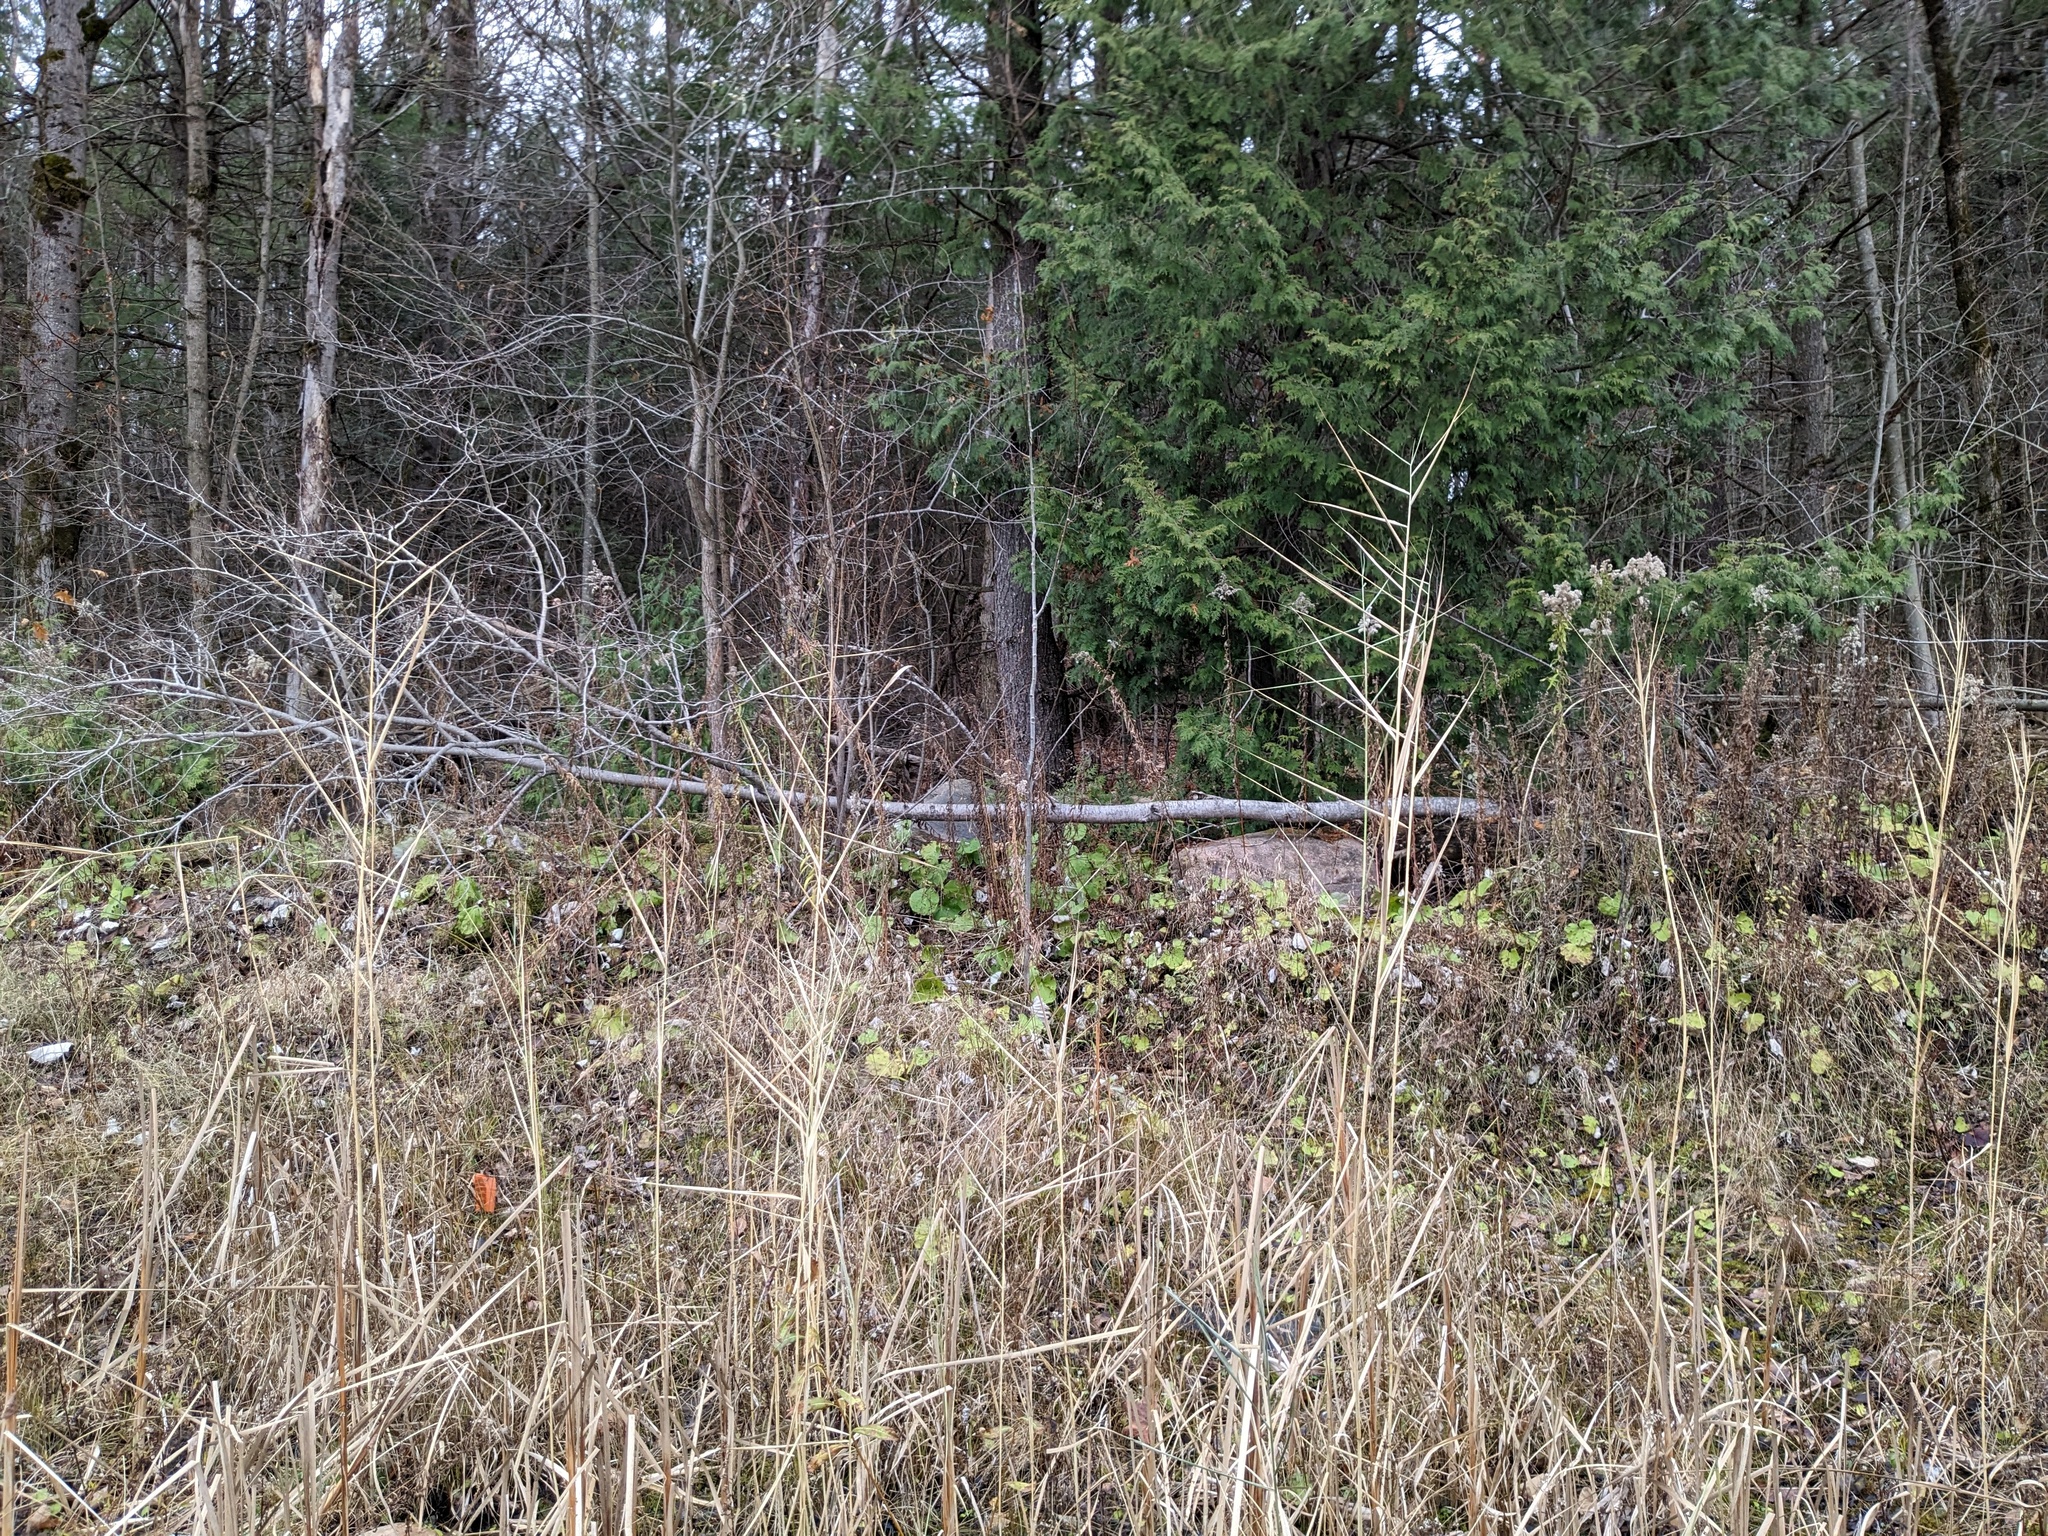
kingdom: Plantae
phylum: Tracheophyta
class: Liliopsida
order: Poales
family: Poaceae
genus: Phragmites
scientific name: Phragmites australis
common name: Common reed
